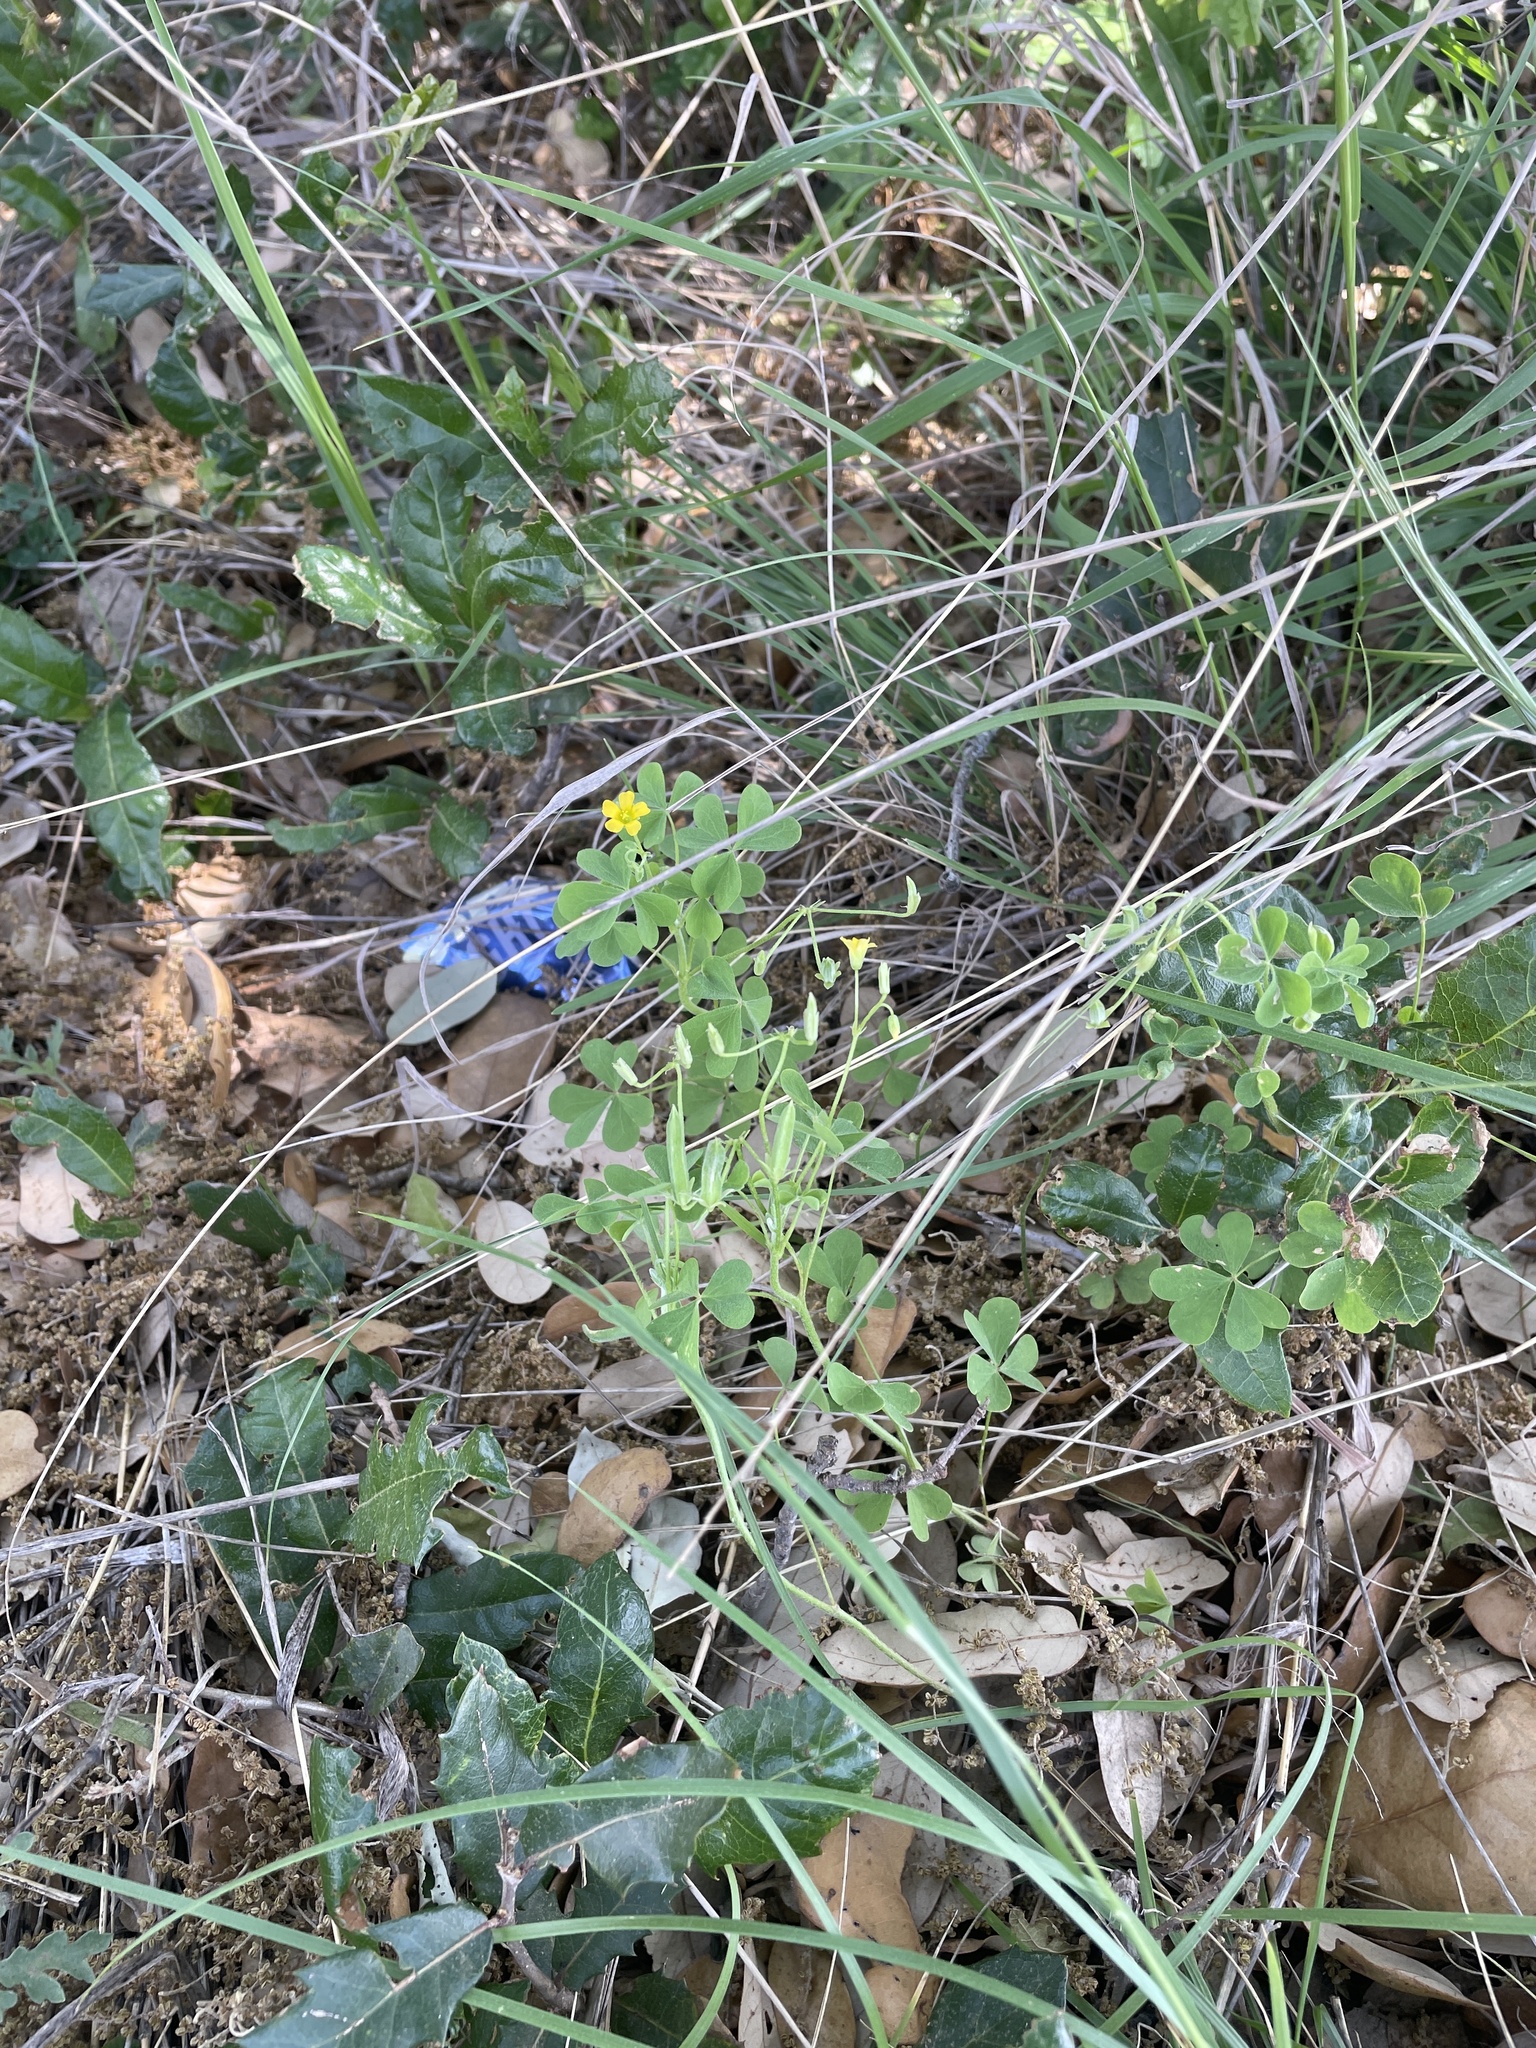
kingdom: Plantae
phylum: Tracheophyta
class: Magnoliopsida
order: Oxalidales
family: Oxalidaceae
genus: Oxalis
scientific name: Oxalis dillenii
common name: Sussex yellow-sorrel
